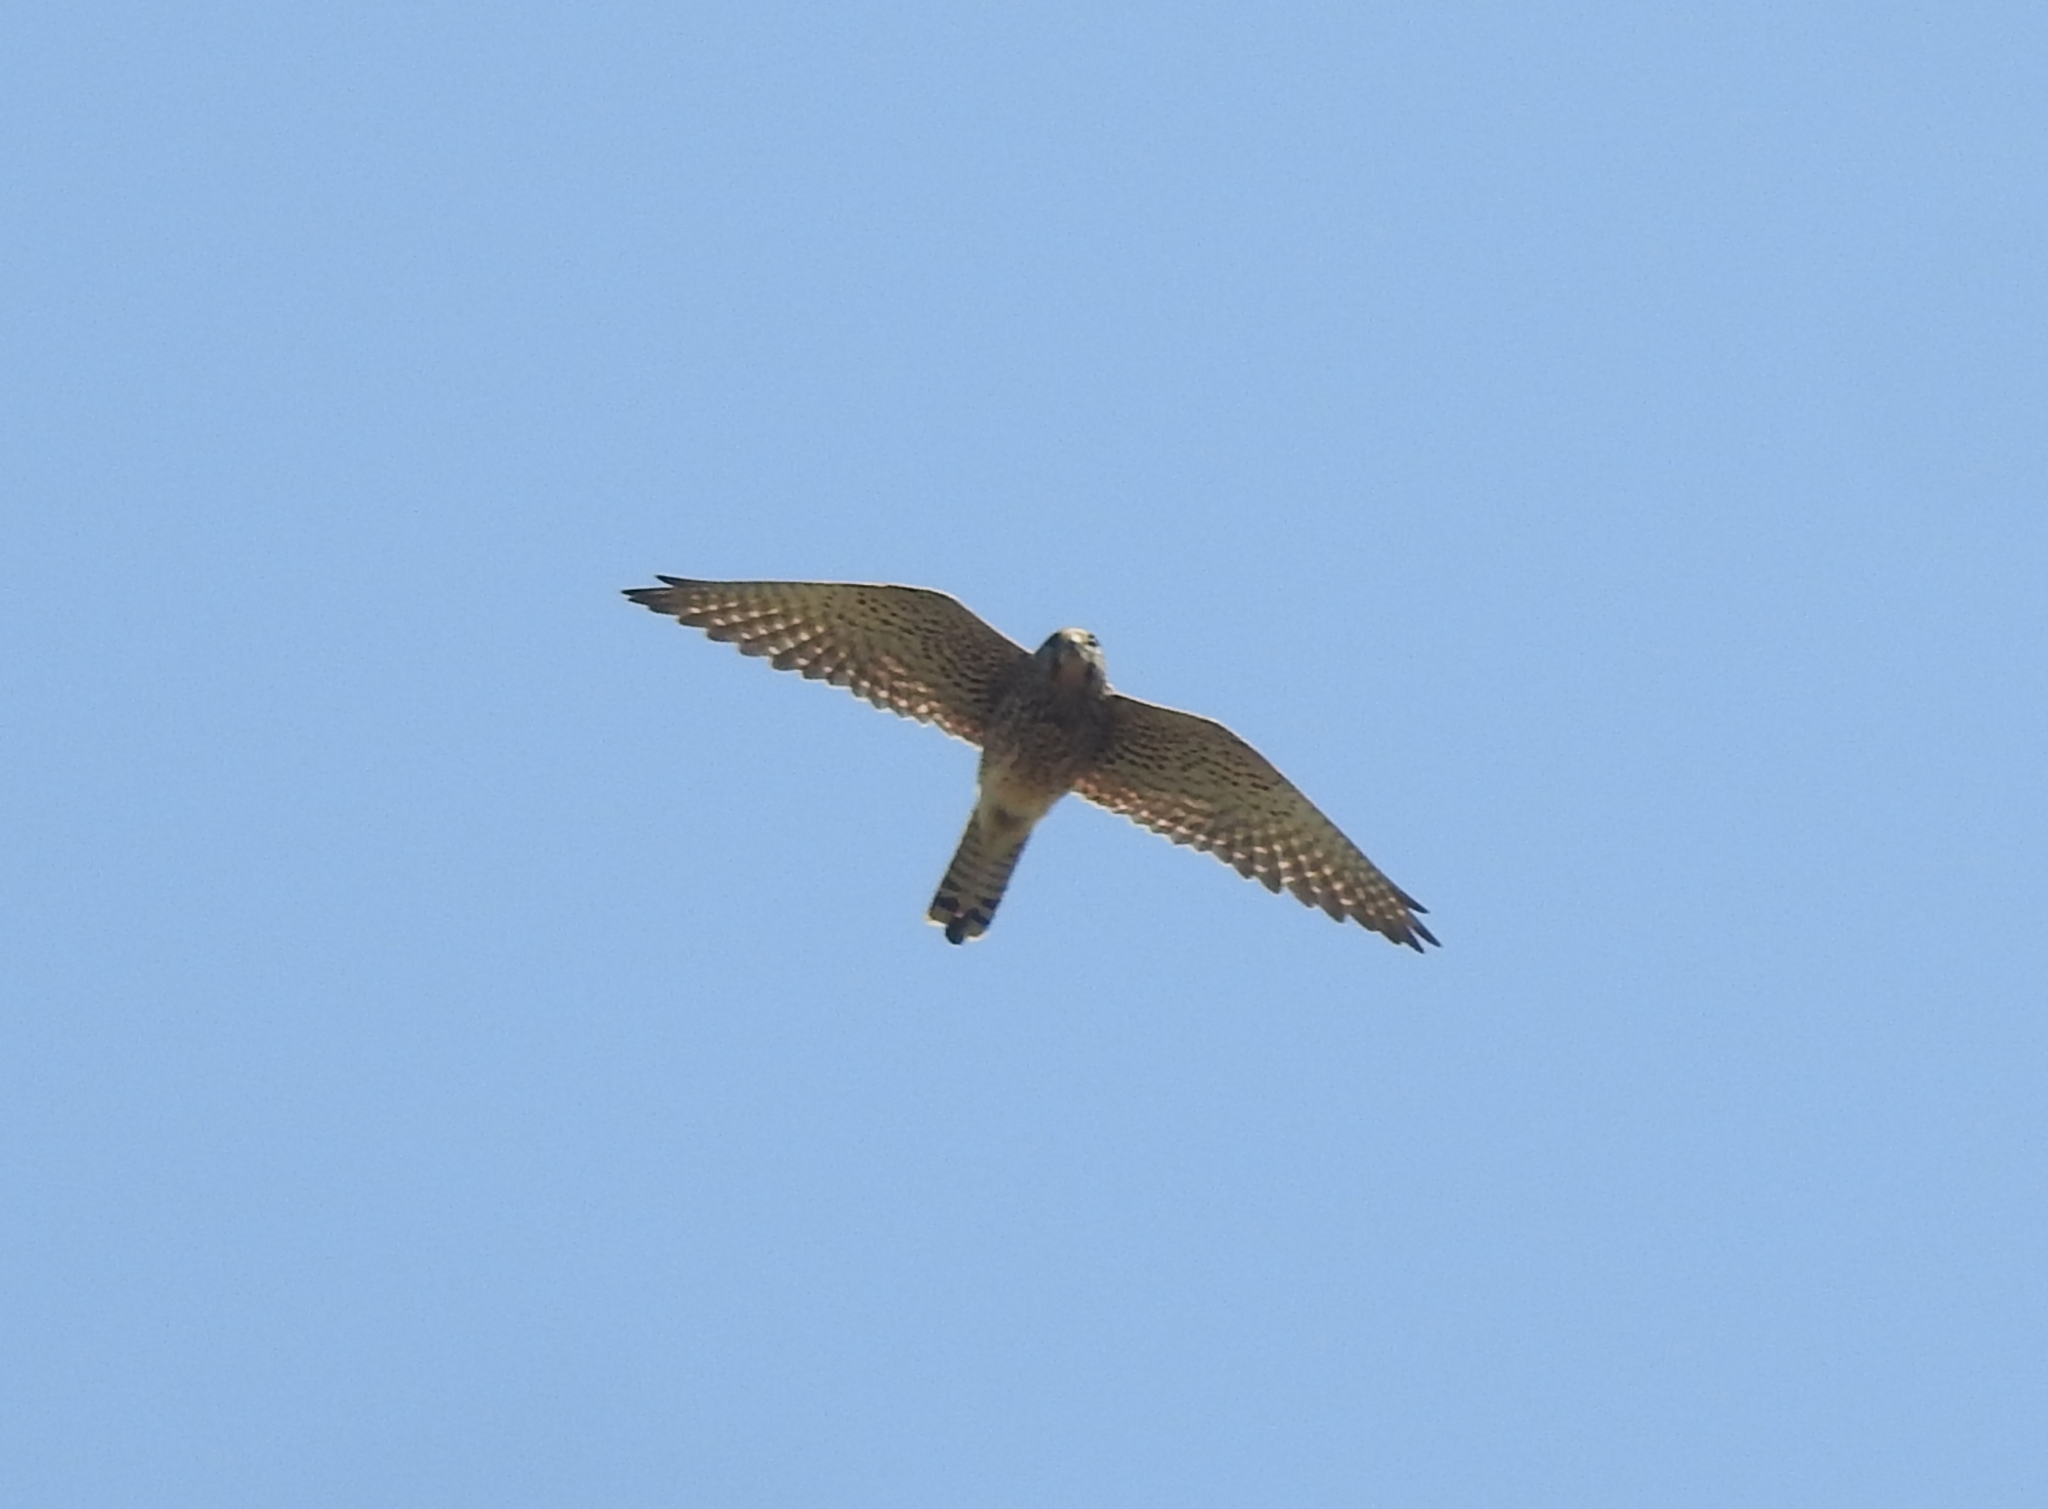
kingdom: Animalia
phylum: Chordata
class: Aves
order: Falconiformes
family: Falconidae
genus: Falco
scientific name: Falco tinnunculus
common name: Common kestrel
